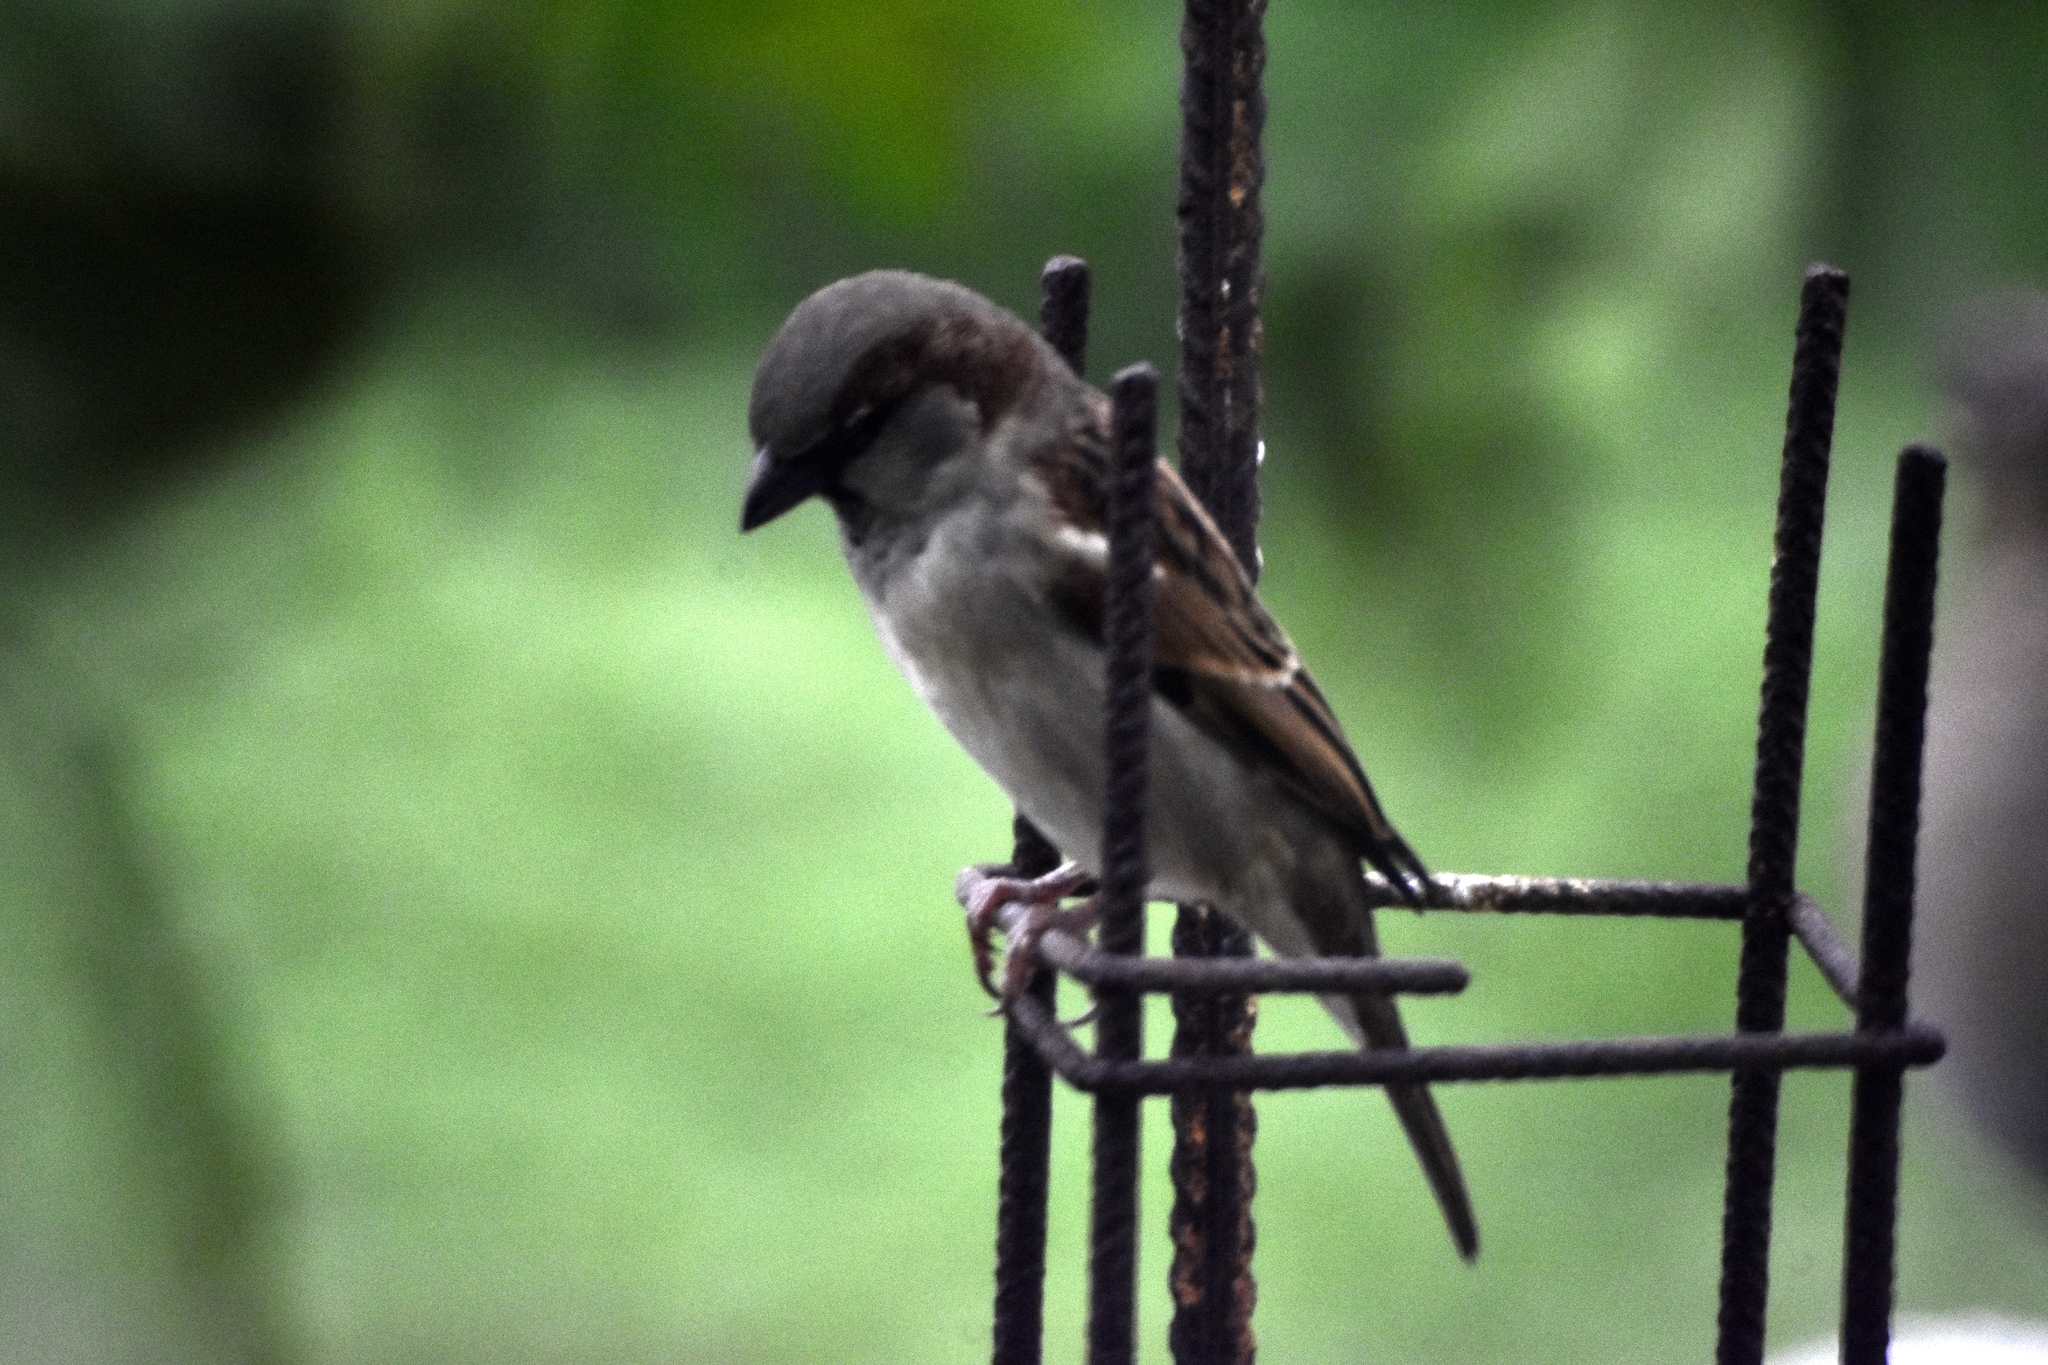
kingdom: Animalia
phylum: Chordata
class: Aves
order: Passeriformes
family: Passeridae
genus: Passer
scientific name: Passer domesticus
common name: House sparrow
